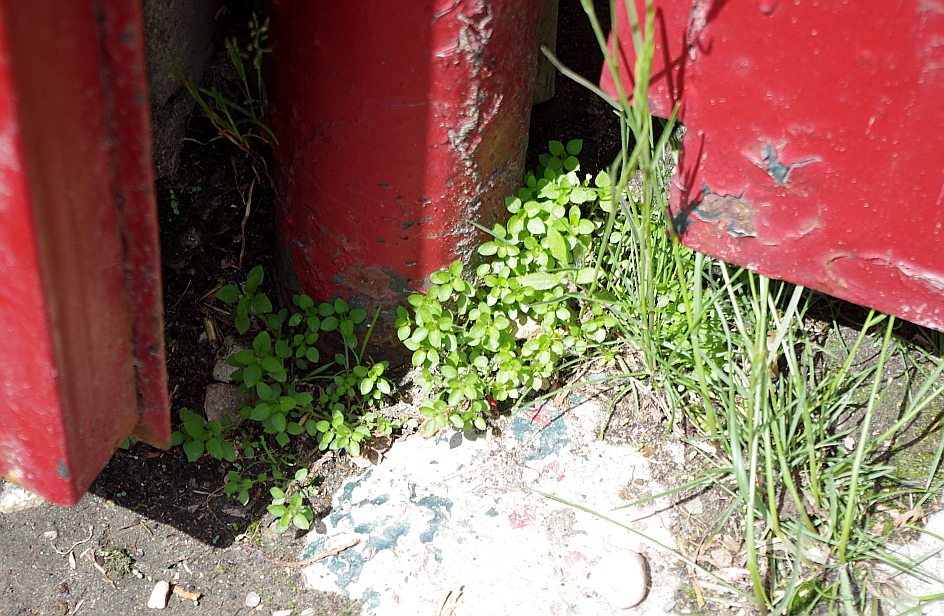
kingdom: Plantae
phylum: Tracheophyta
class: Magnoliopsida
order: Caryophyllales
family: Caryophyllaceae
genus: Stellaria
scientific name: Stellaria media
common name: Common chickweed
